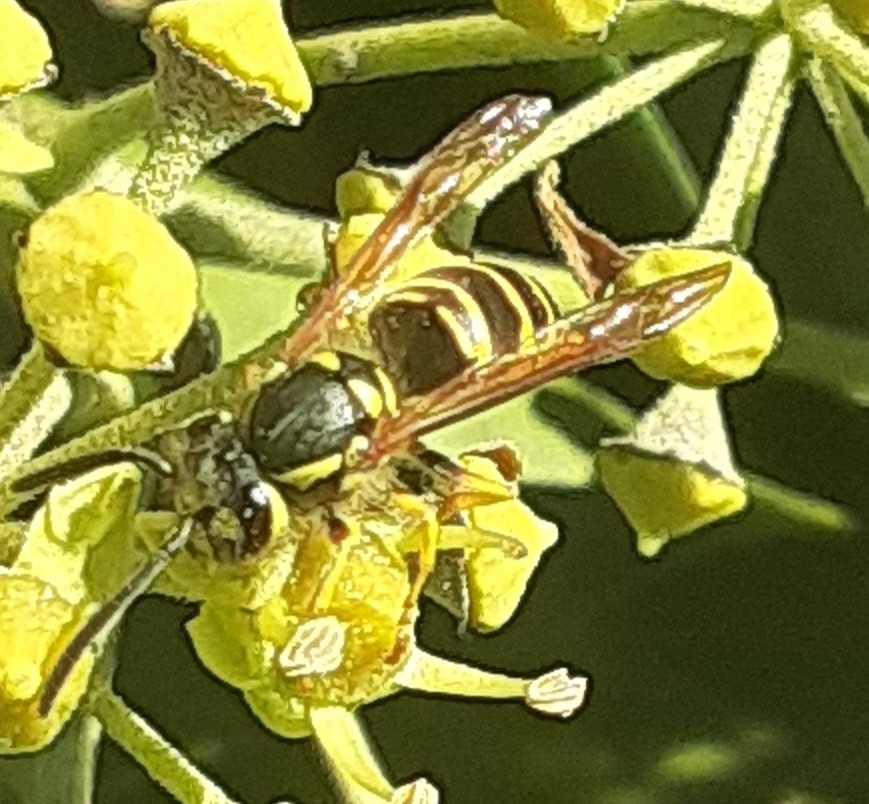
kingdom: Animalia
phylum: Arthropoda
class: Insecta
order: Hymenoptera
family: Vespidae
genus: Vespula
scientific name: Vespula maculifrons
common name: Eastern yellowjacket
